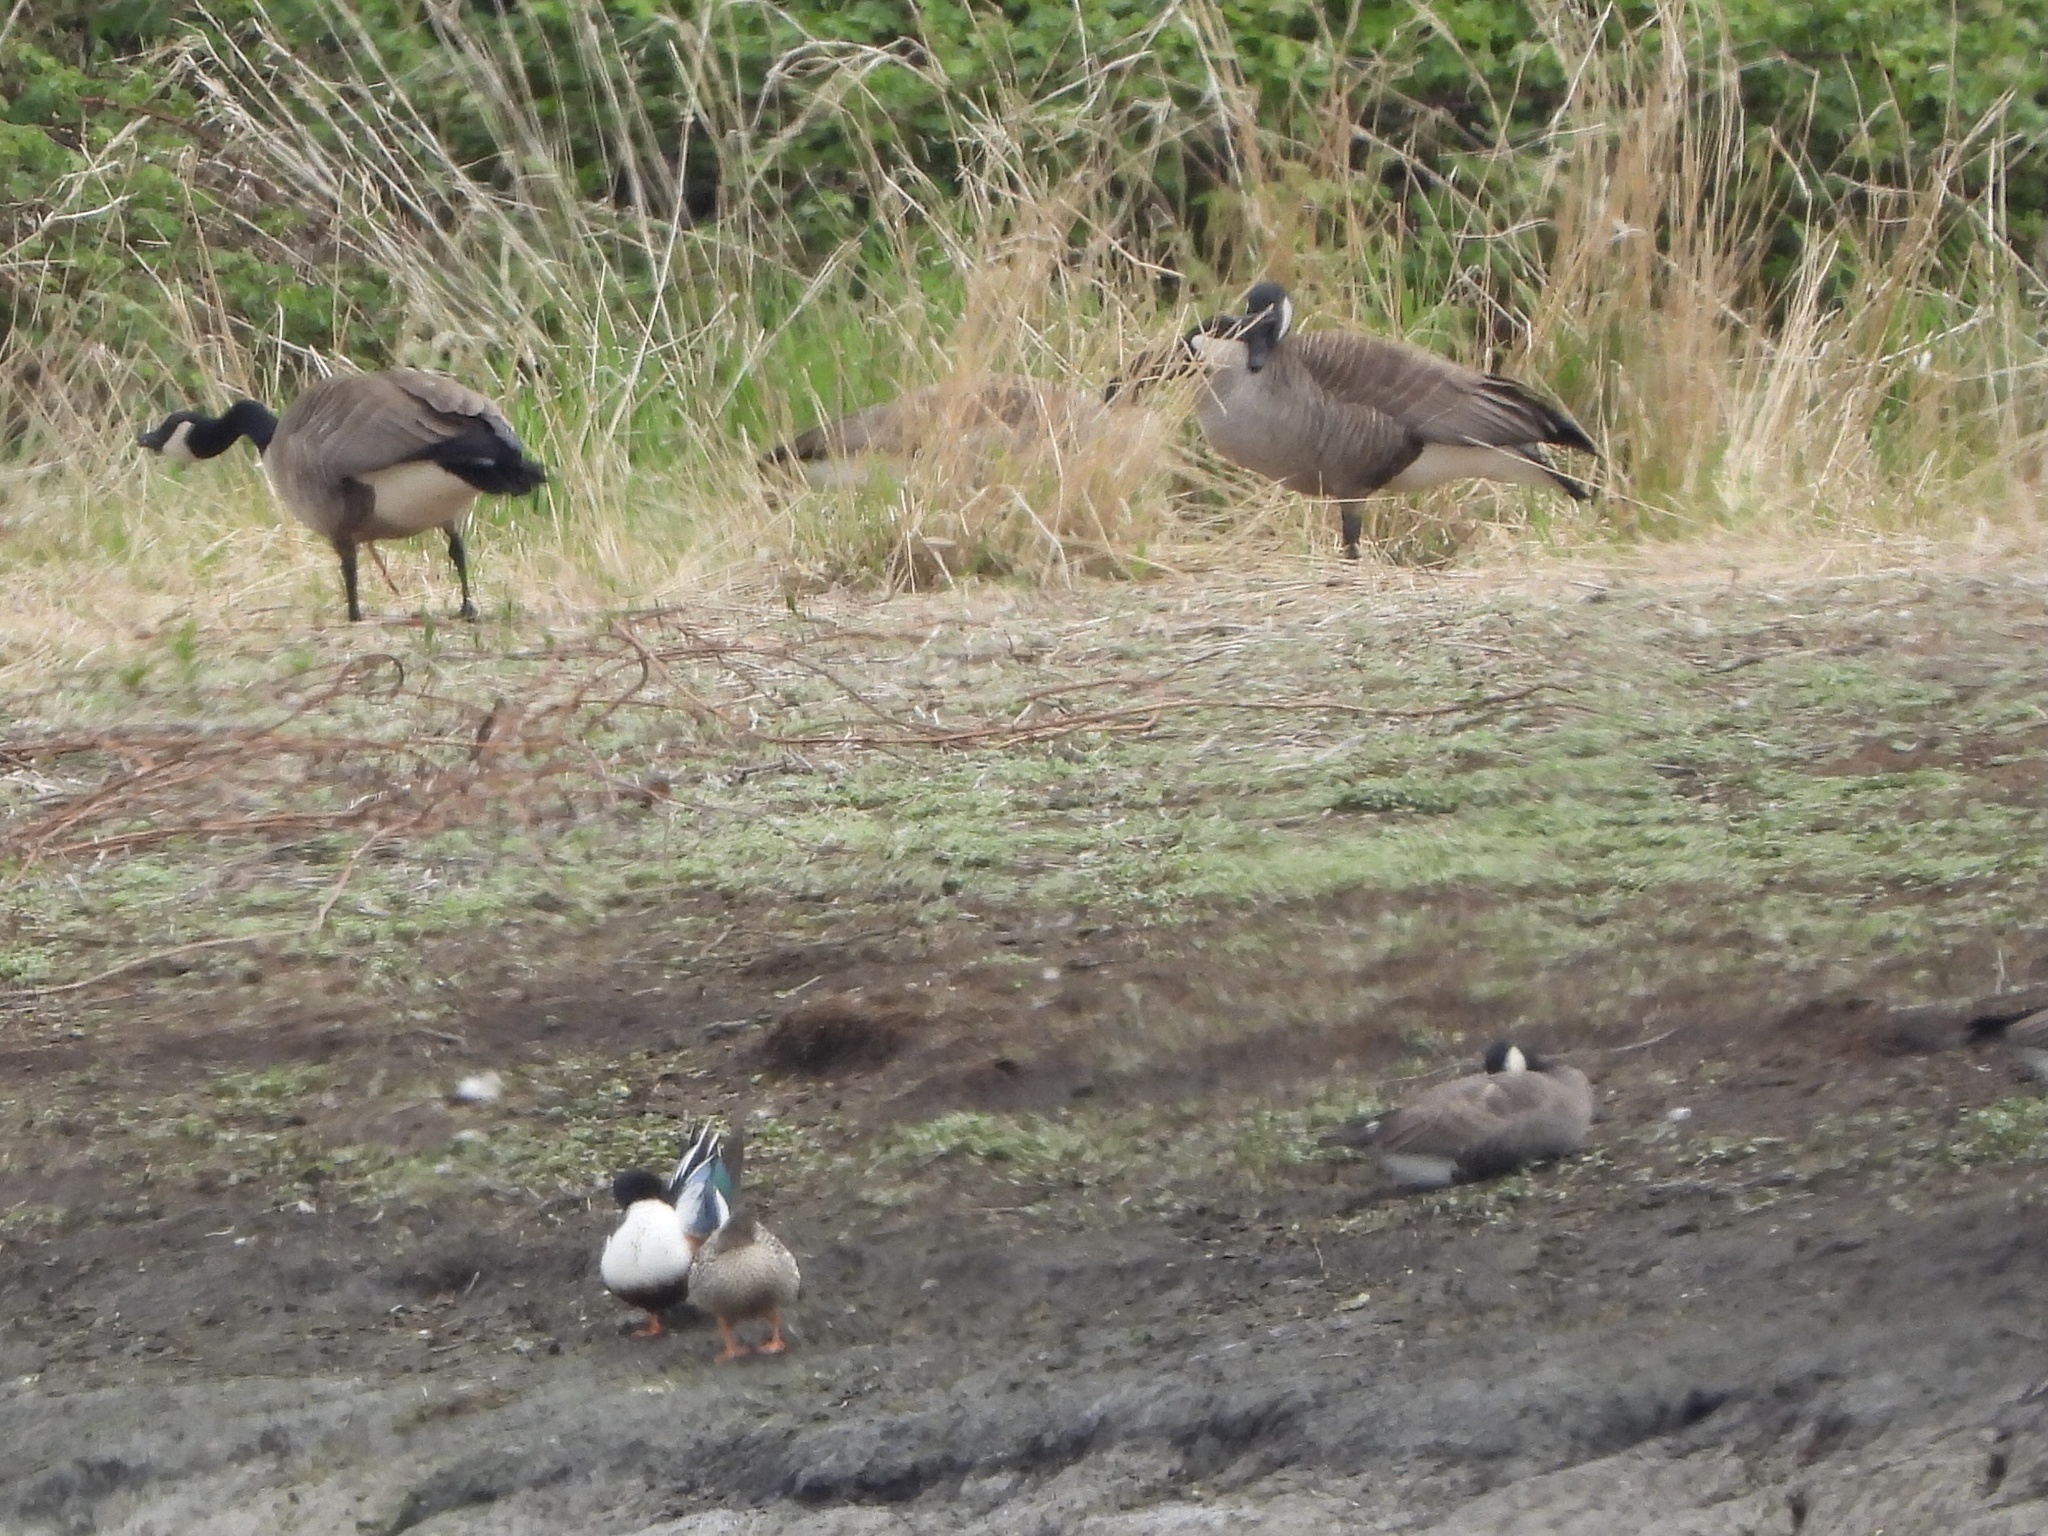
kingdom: Animalia
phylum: Chordata
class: Aves
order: Anseriformes
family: Anatidae
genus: Spatula
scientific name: Spatula clypeata
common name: Northern shoveler
